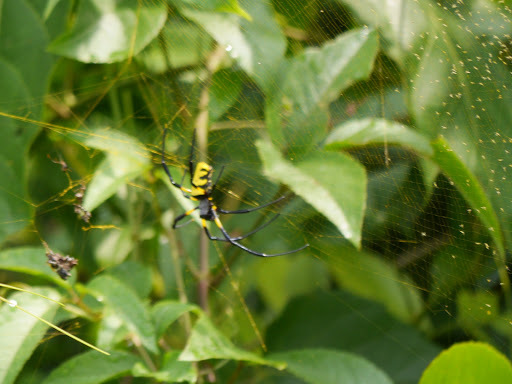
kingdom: Animalia
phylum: Arthropoda
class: Arachnida
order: Araneae
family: Araneidae
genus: Trichonephila
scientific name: Trichonephila turneri
